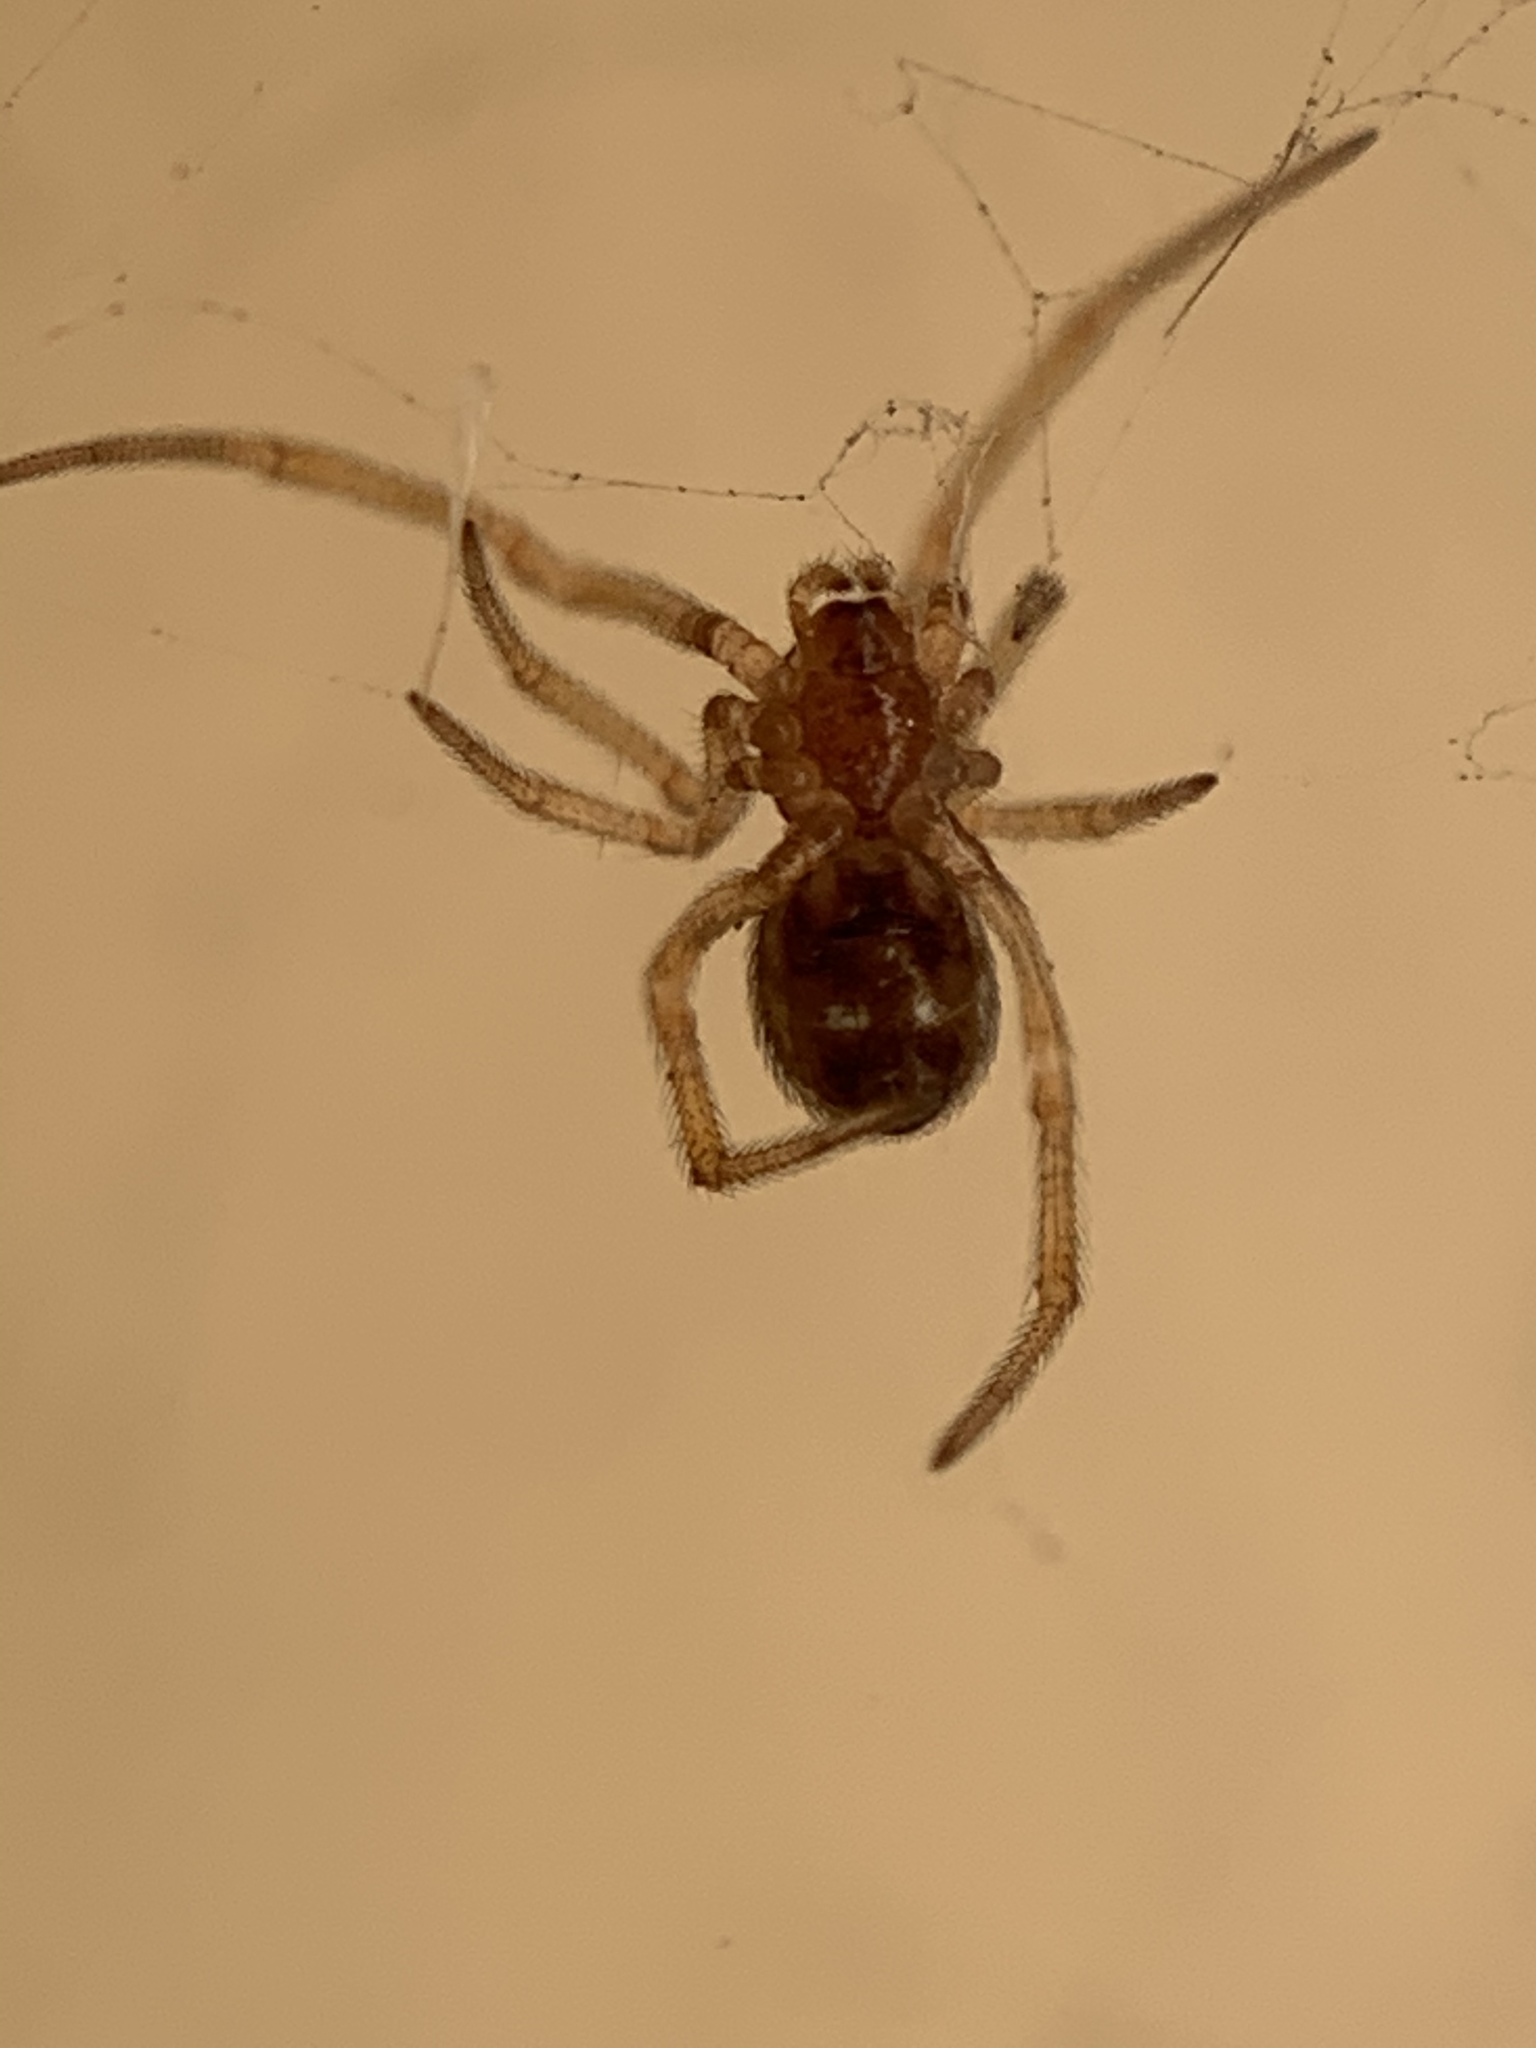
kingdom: Animalia
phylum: Arthropoda
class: Arachnida
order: Araneae
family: Theridiidae
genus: Steatoda
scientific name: Steatoda triangulosa
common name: Triangulate bud spider
